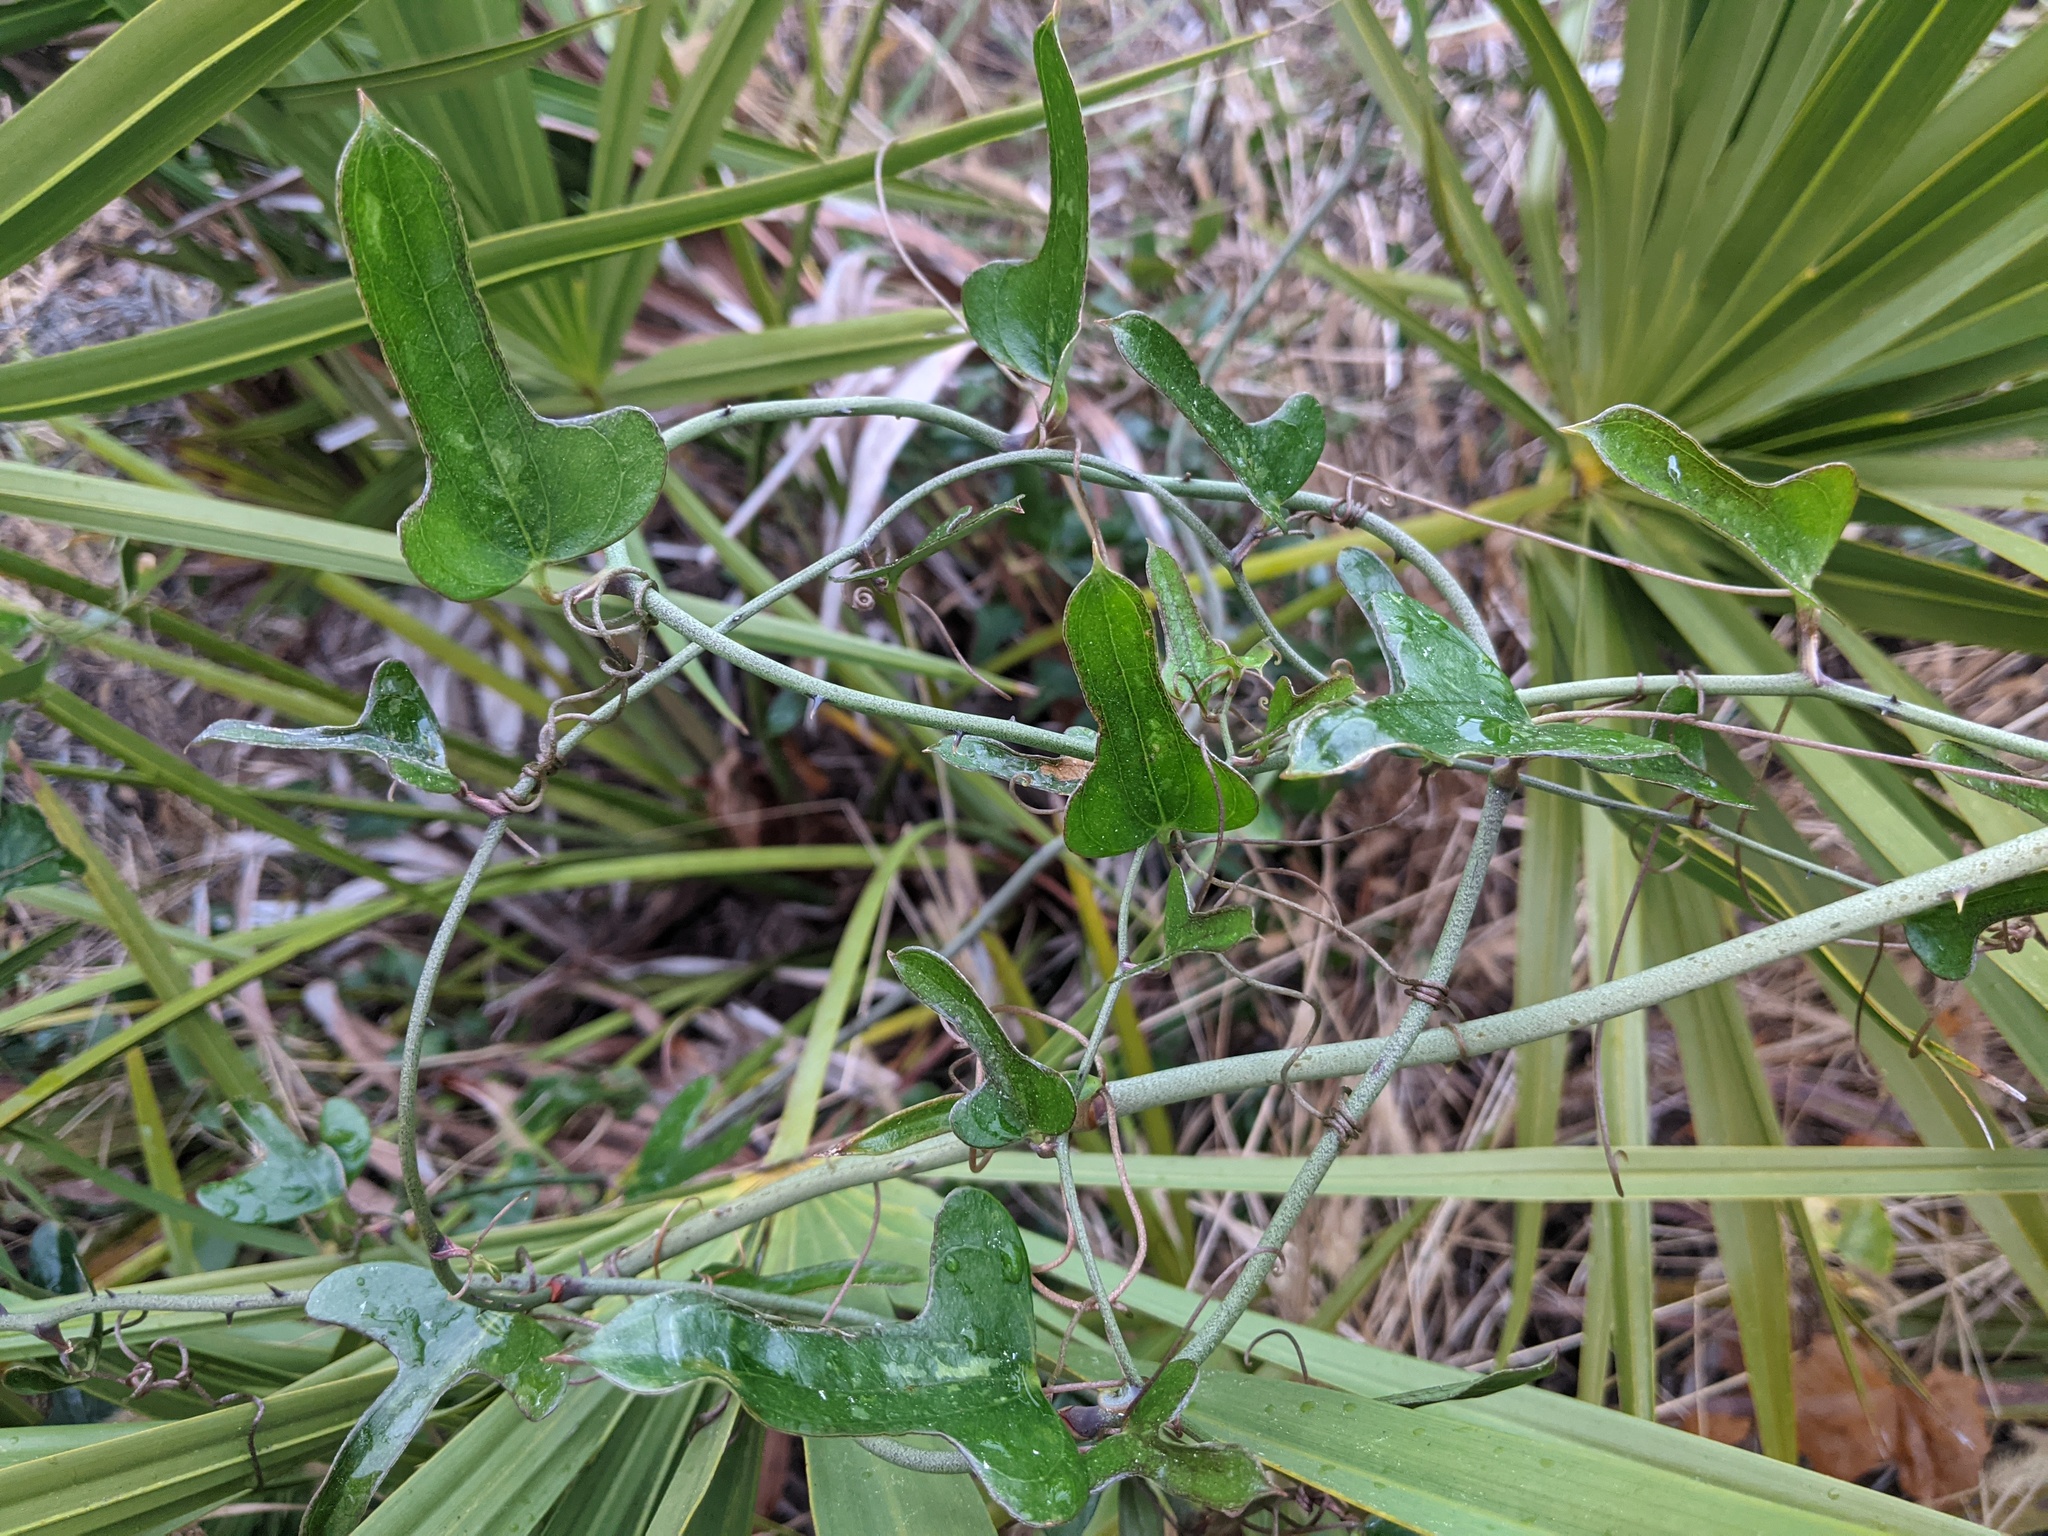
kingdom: Plantae
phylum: Tracheophyta
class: Liliopsida
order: Liliales
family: Smilacaceae
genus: Smilax
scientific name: Smilax bona-nox
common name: Catbrier
